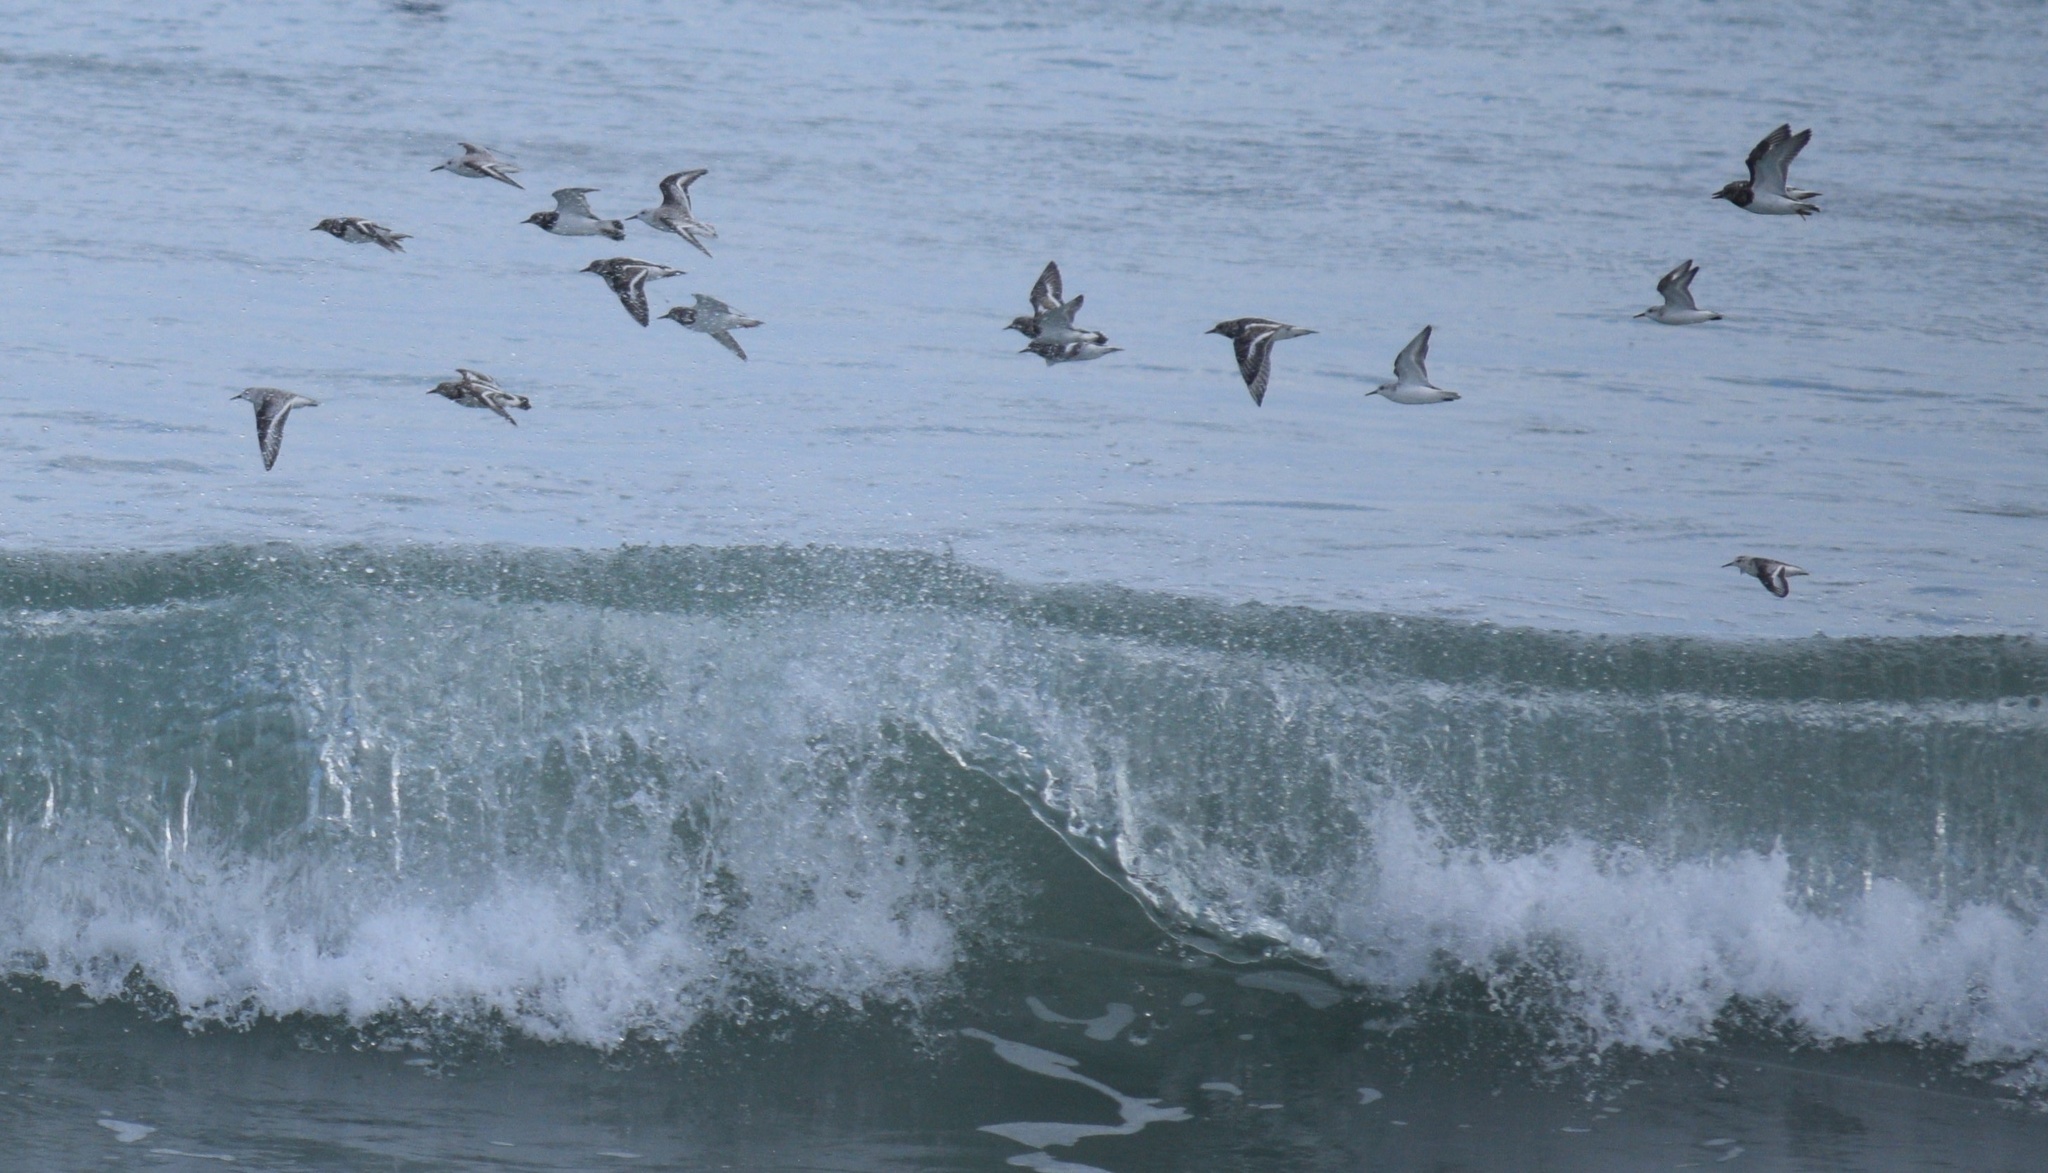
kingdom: Animalia
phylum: Chordata
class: Aves
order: Charadriiformes
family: Scolopacidae
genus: Arenaria
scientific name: Arenaria interpres
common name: Ruddy turnstone
